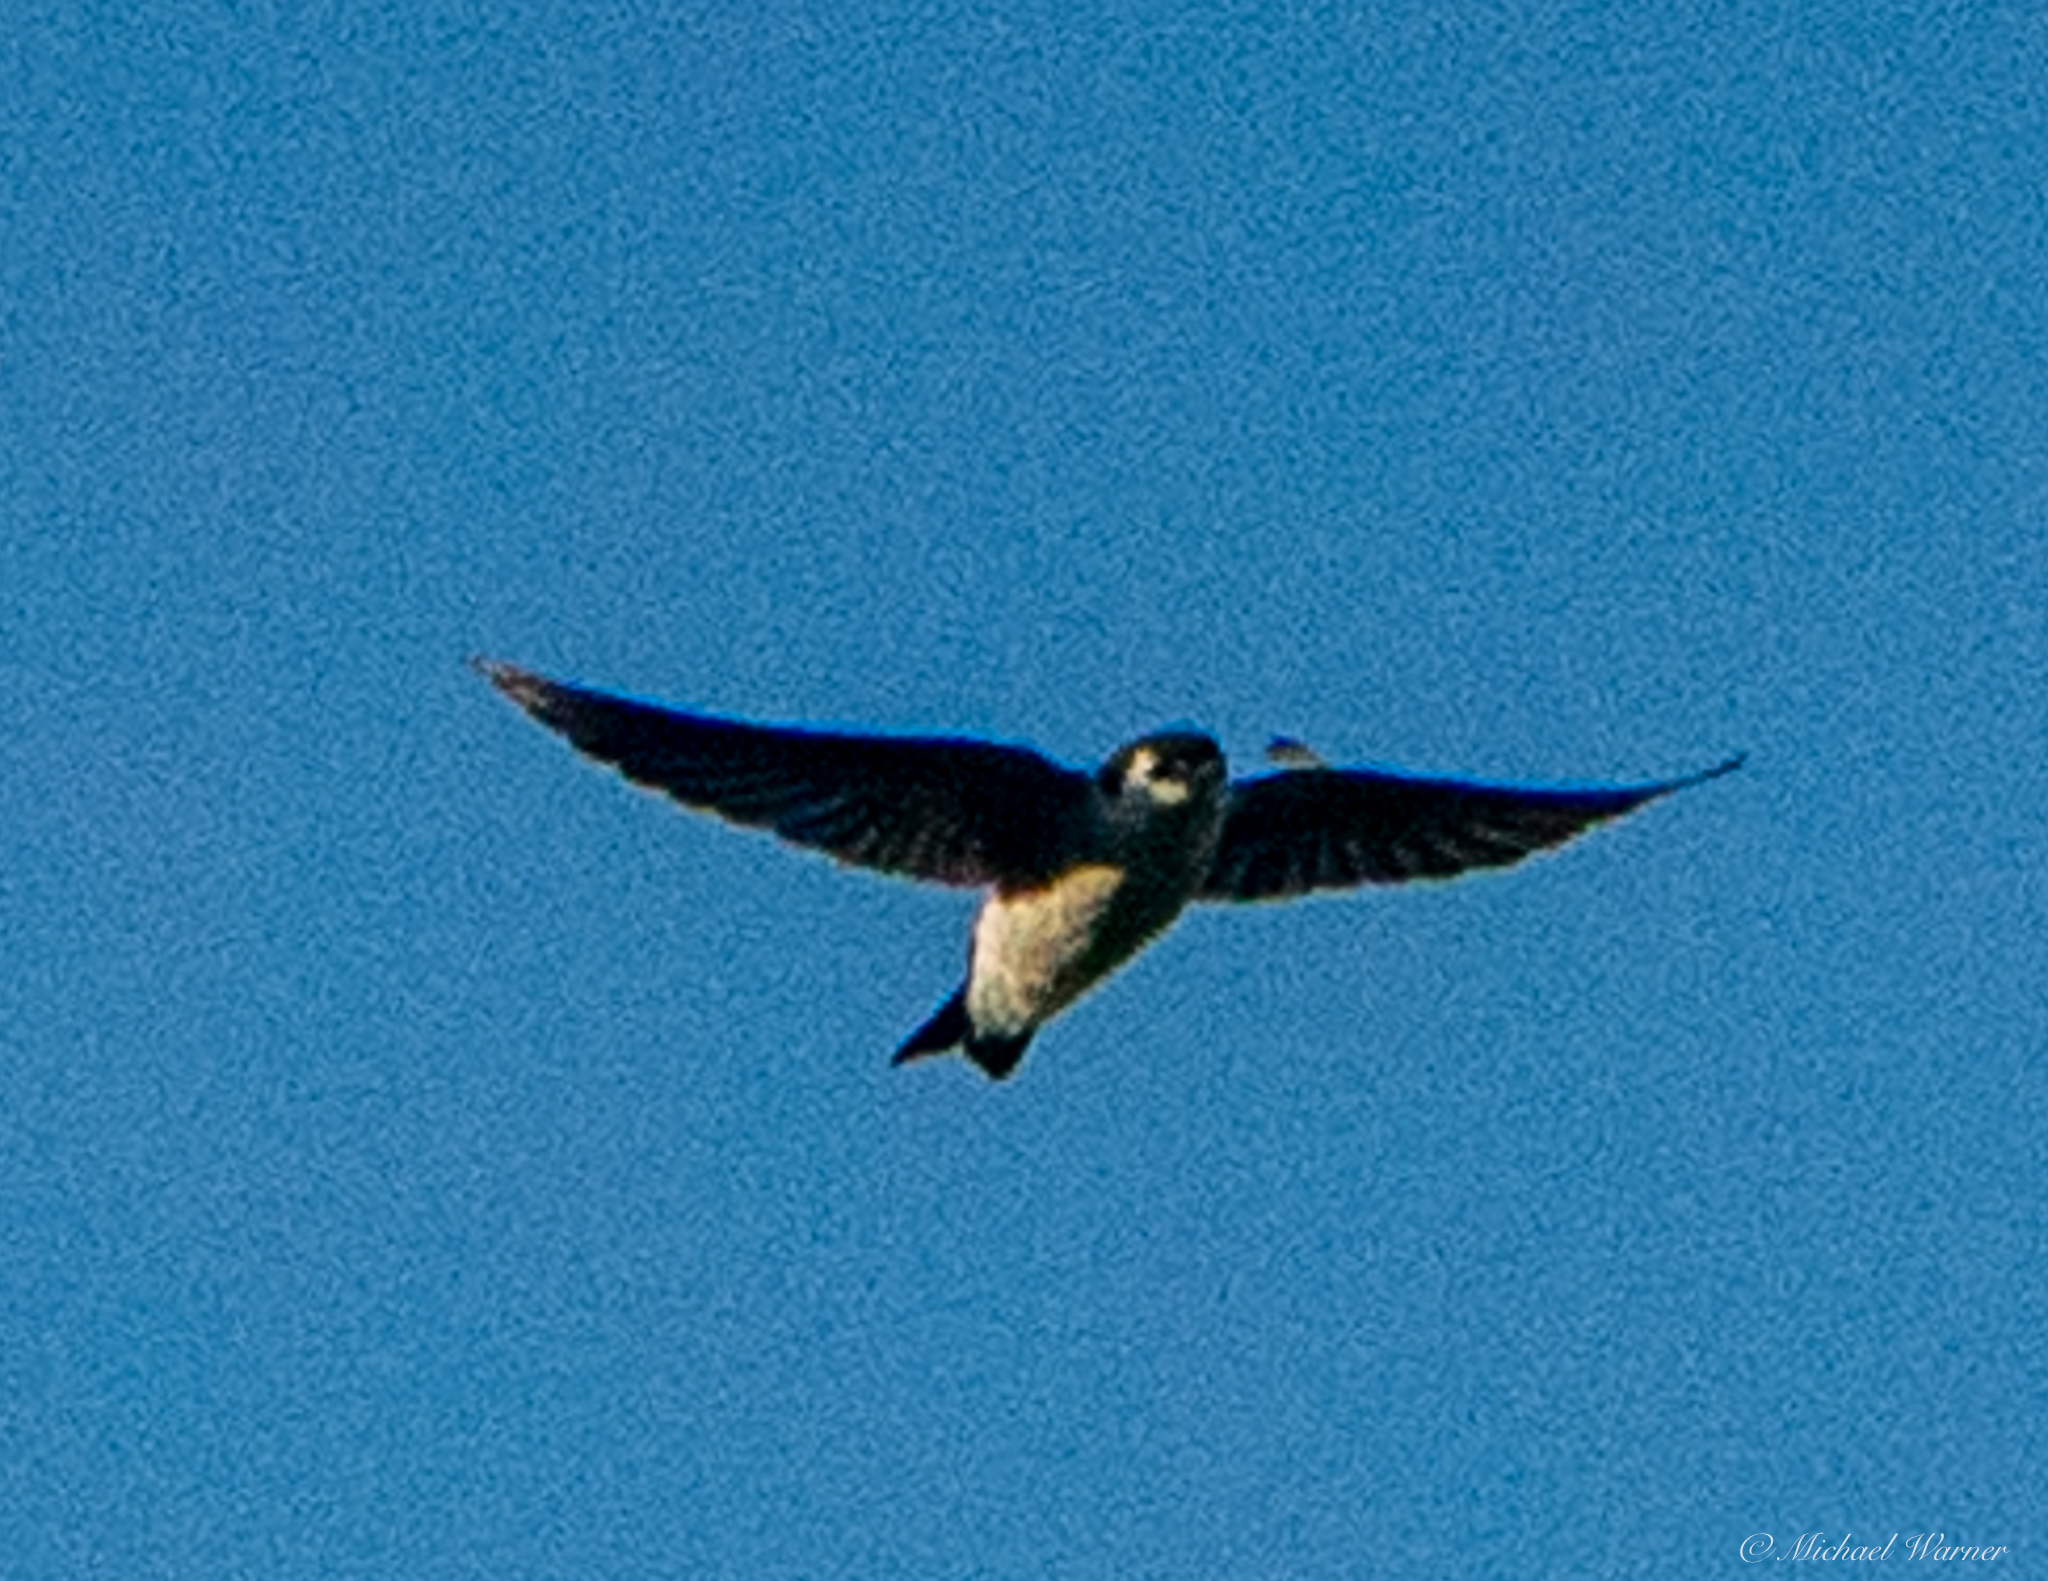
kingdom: Animalia
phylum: Chordata
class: Aves
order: Passeriformes
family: Hirundinidae
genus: Tachycineta
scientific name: Tachycineta thalassina
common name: Violet-green swallow
